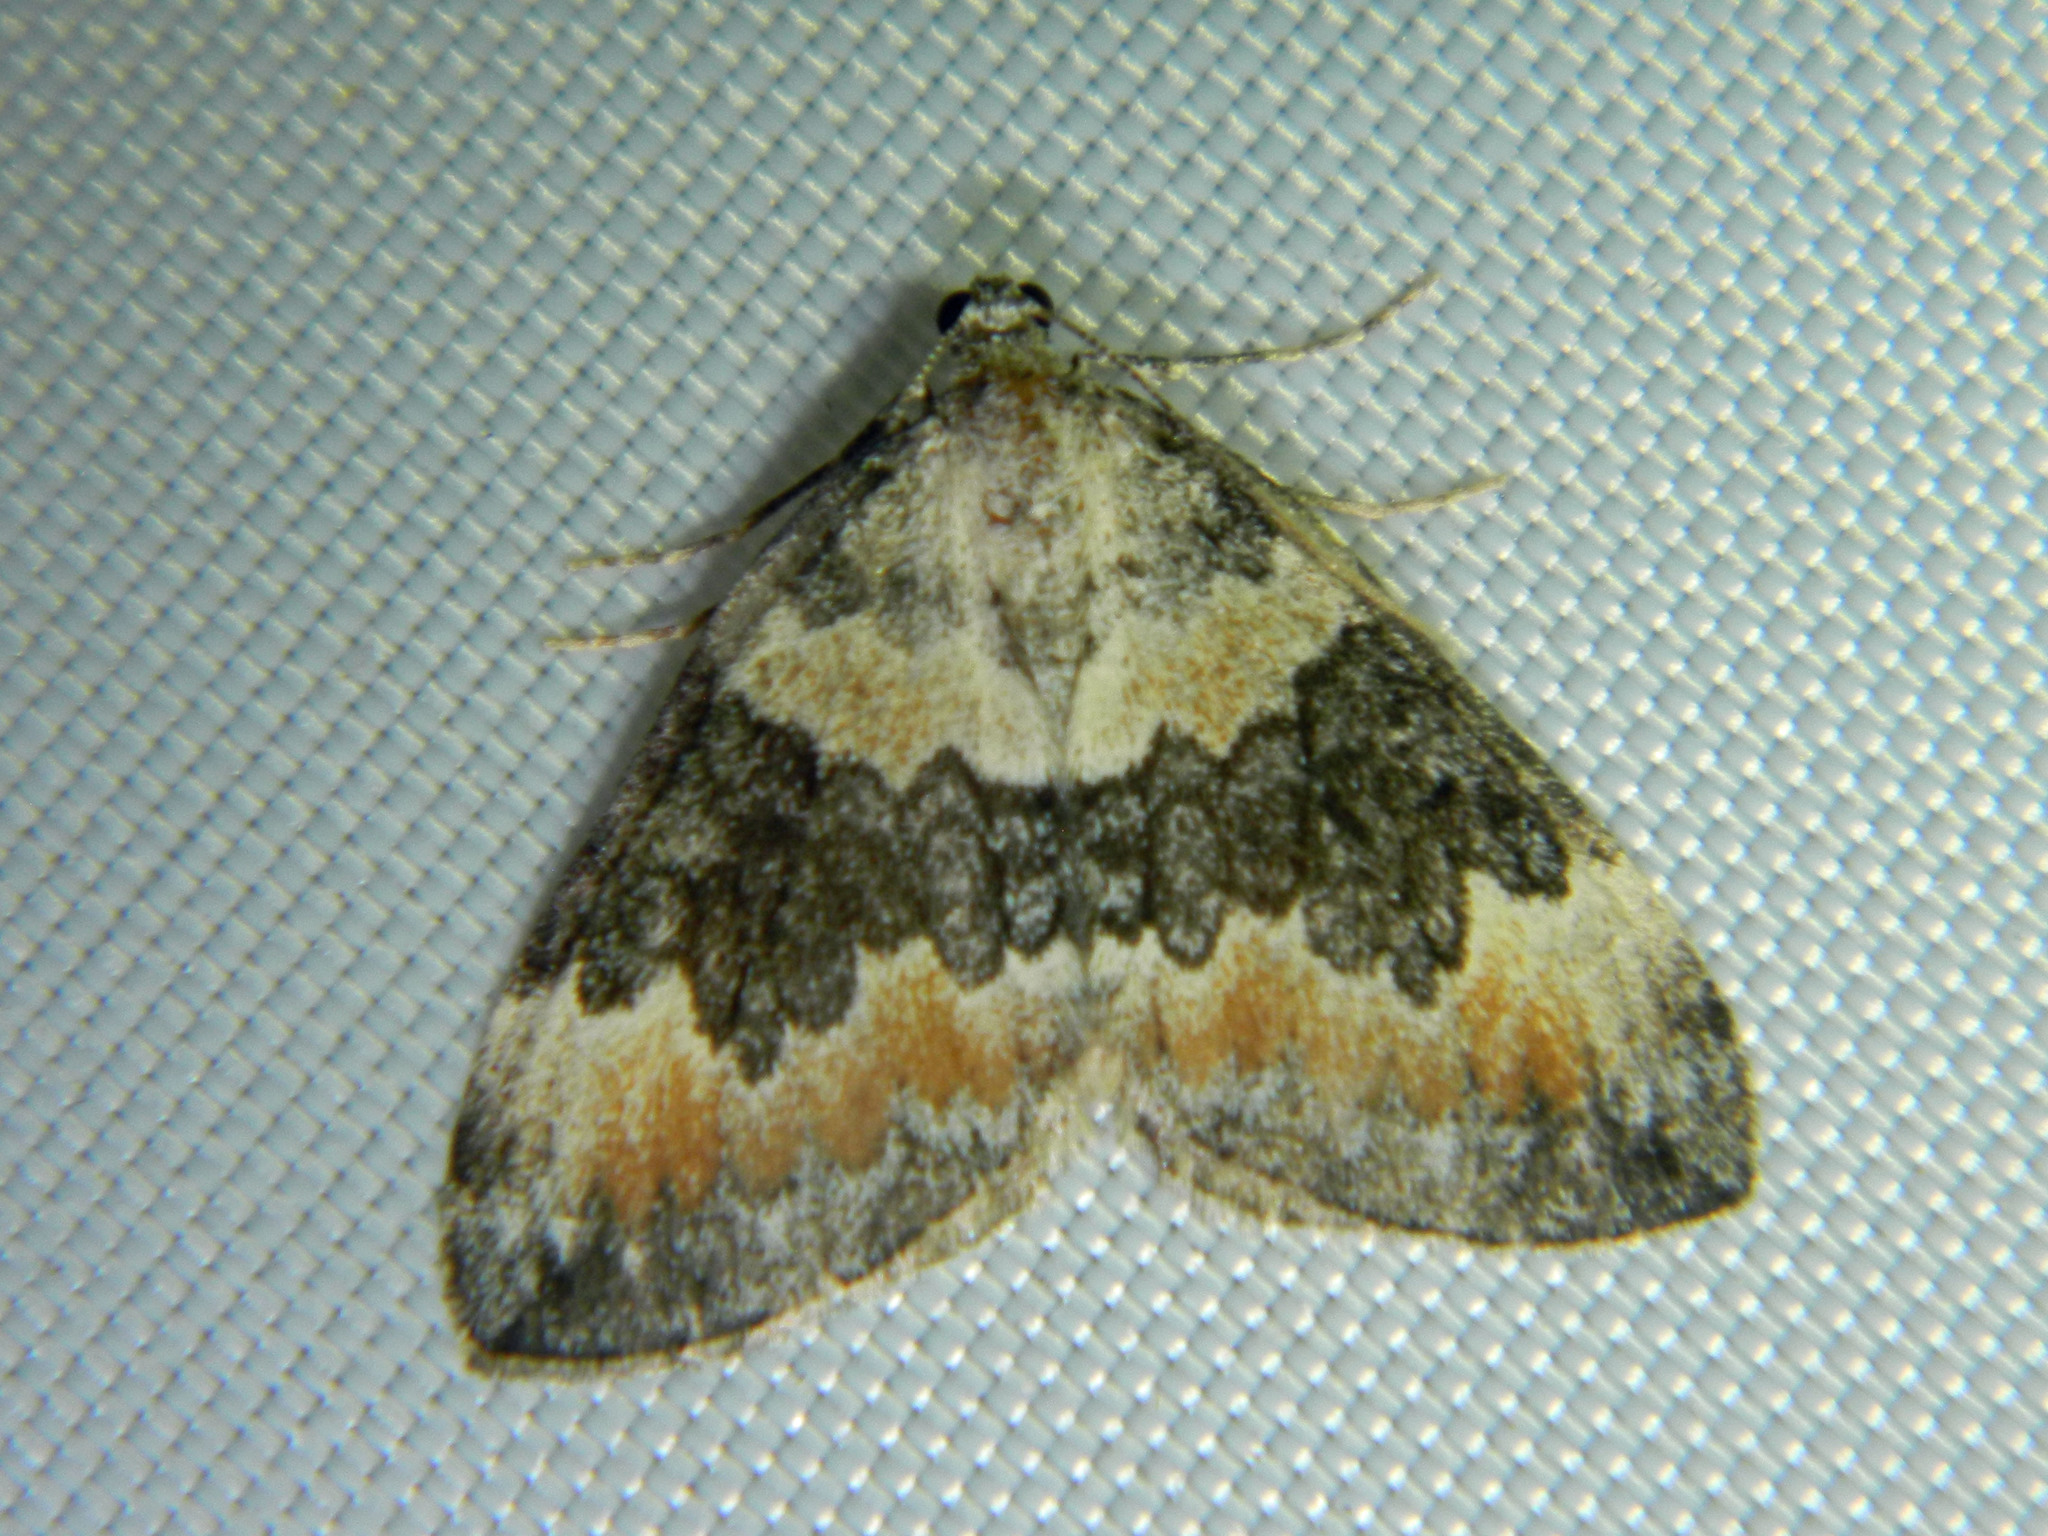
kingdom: Animalia
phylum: Arthropoda
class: Insecta
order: Lepidoptera
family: Geometridae
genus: Dysstroma
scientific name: Dysstroma brunneata
